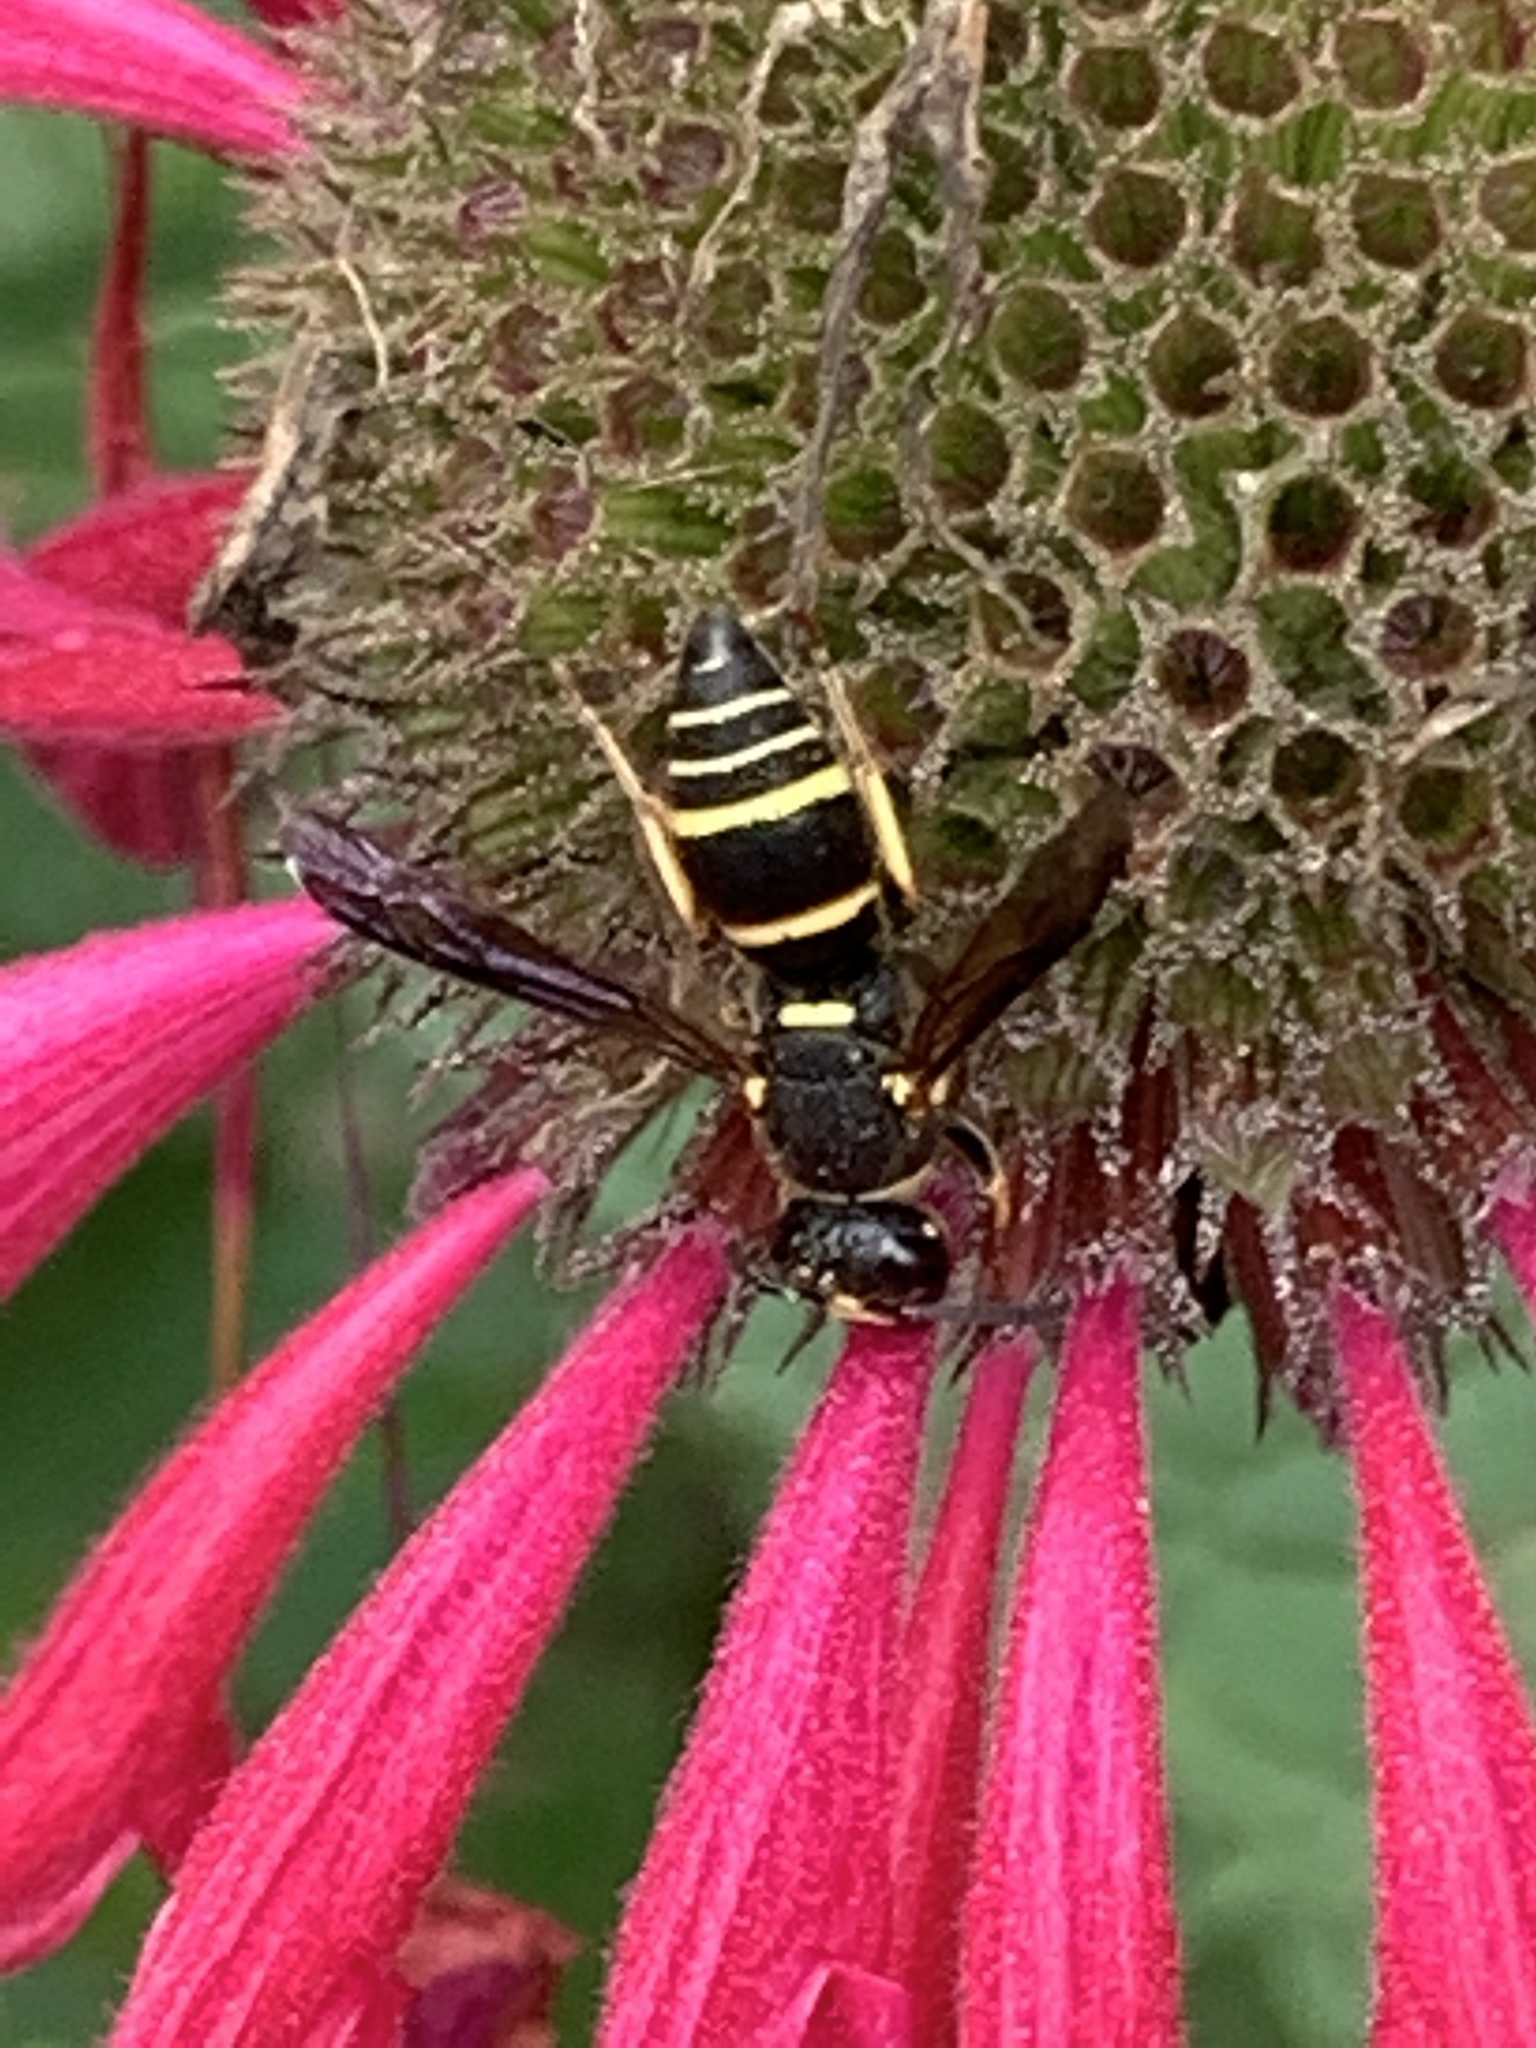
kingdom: Animalia
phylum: Arthropoda
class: Insecta
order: Hymenoptera
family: Eumenidae
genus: Euodynerus
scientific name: Euodynerus foraminatus
